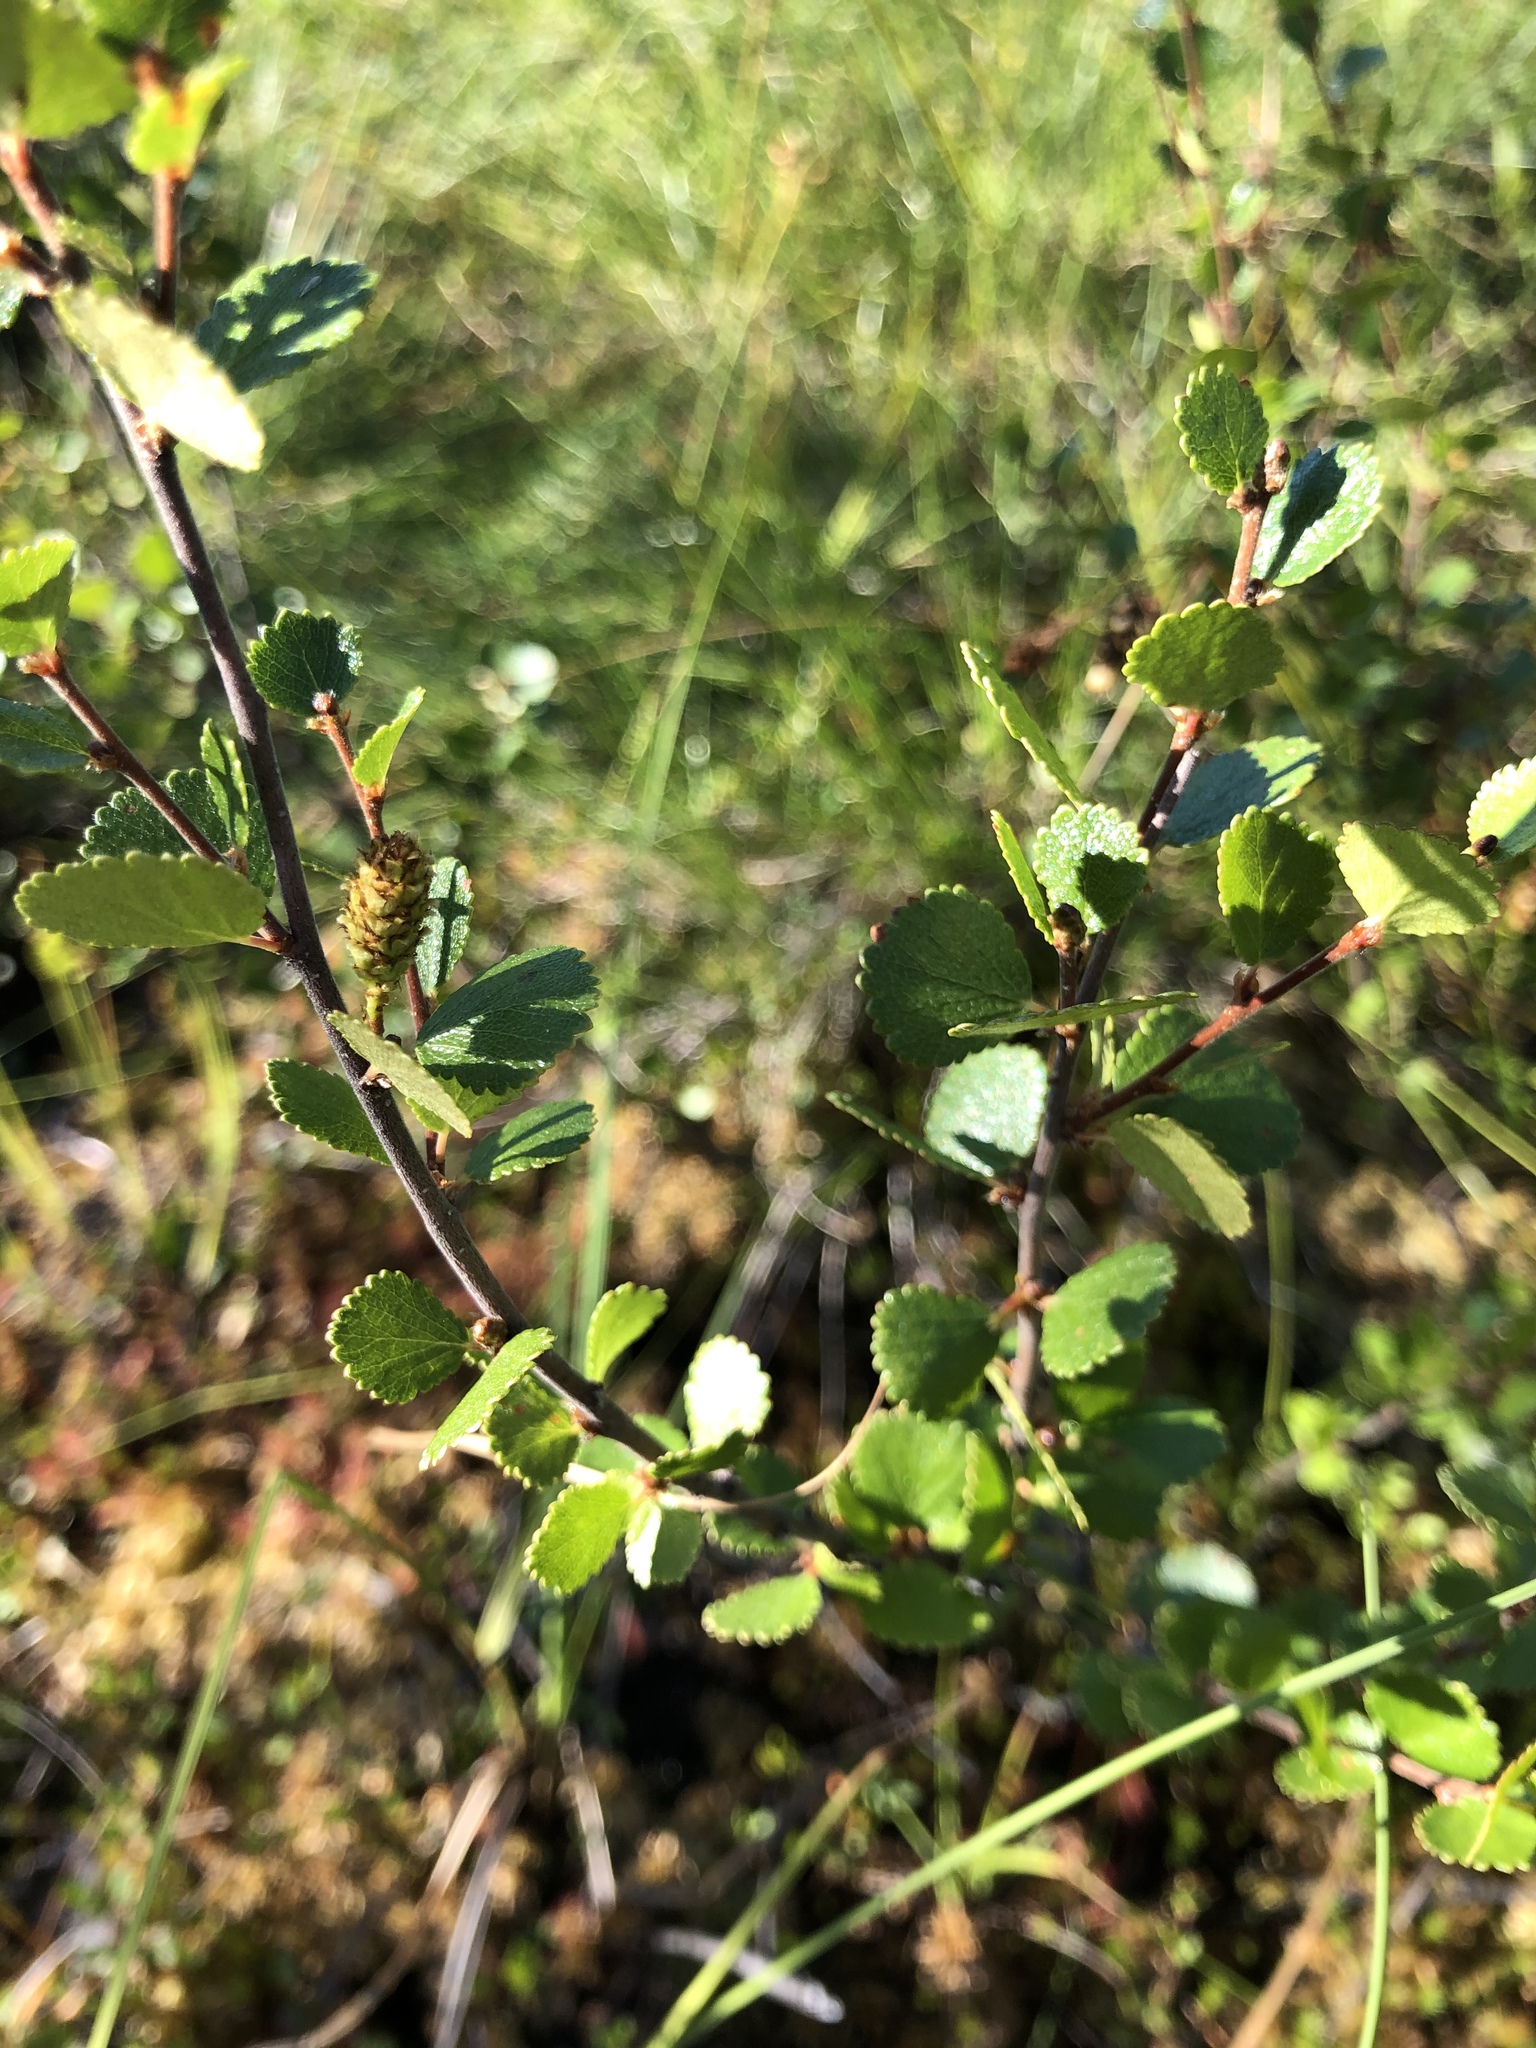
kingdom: Plantae
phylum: Tracheophyta
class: Magnoliopsida
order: Fagales
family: Betulaceae
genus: Betula
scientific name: Betula nana
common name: Arctic dwarf birch
